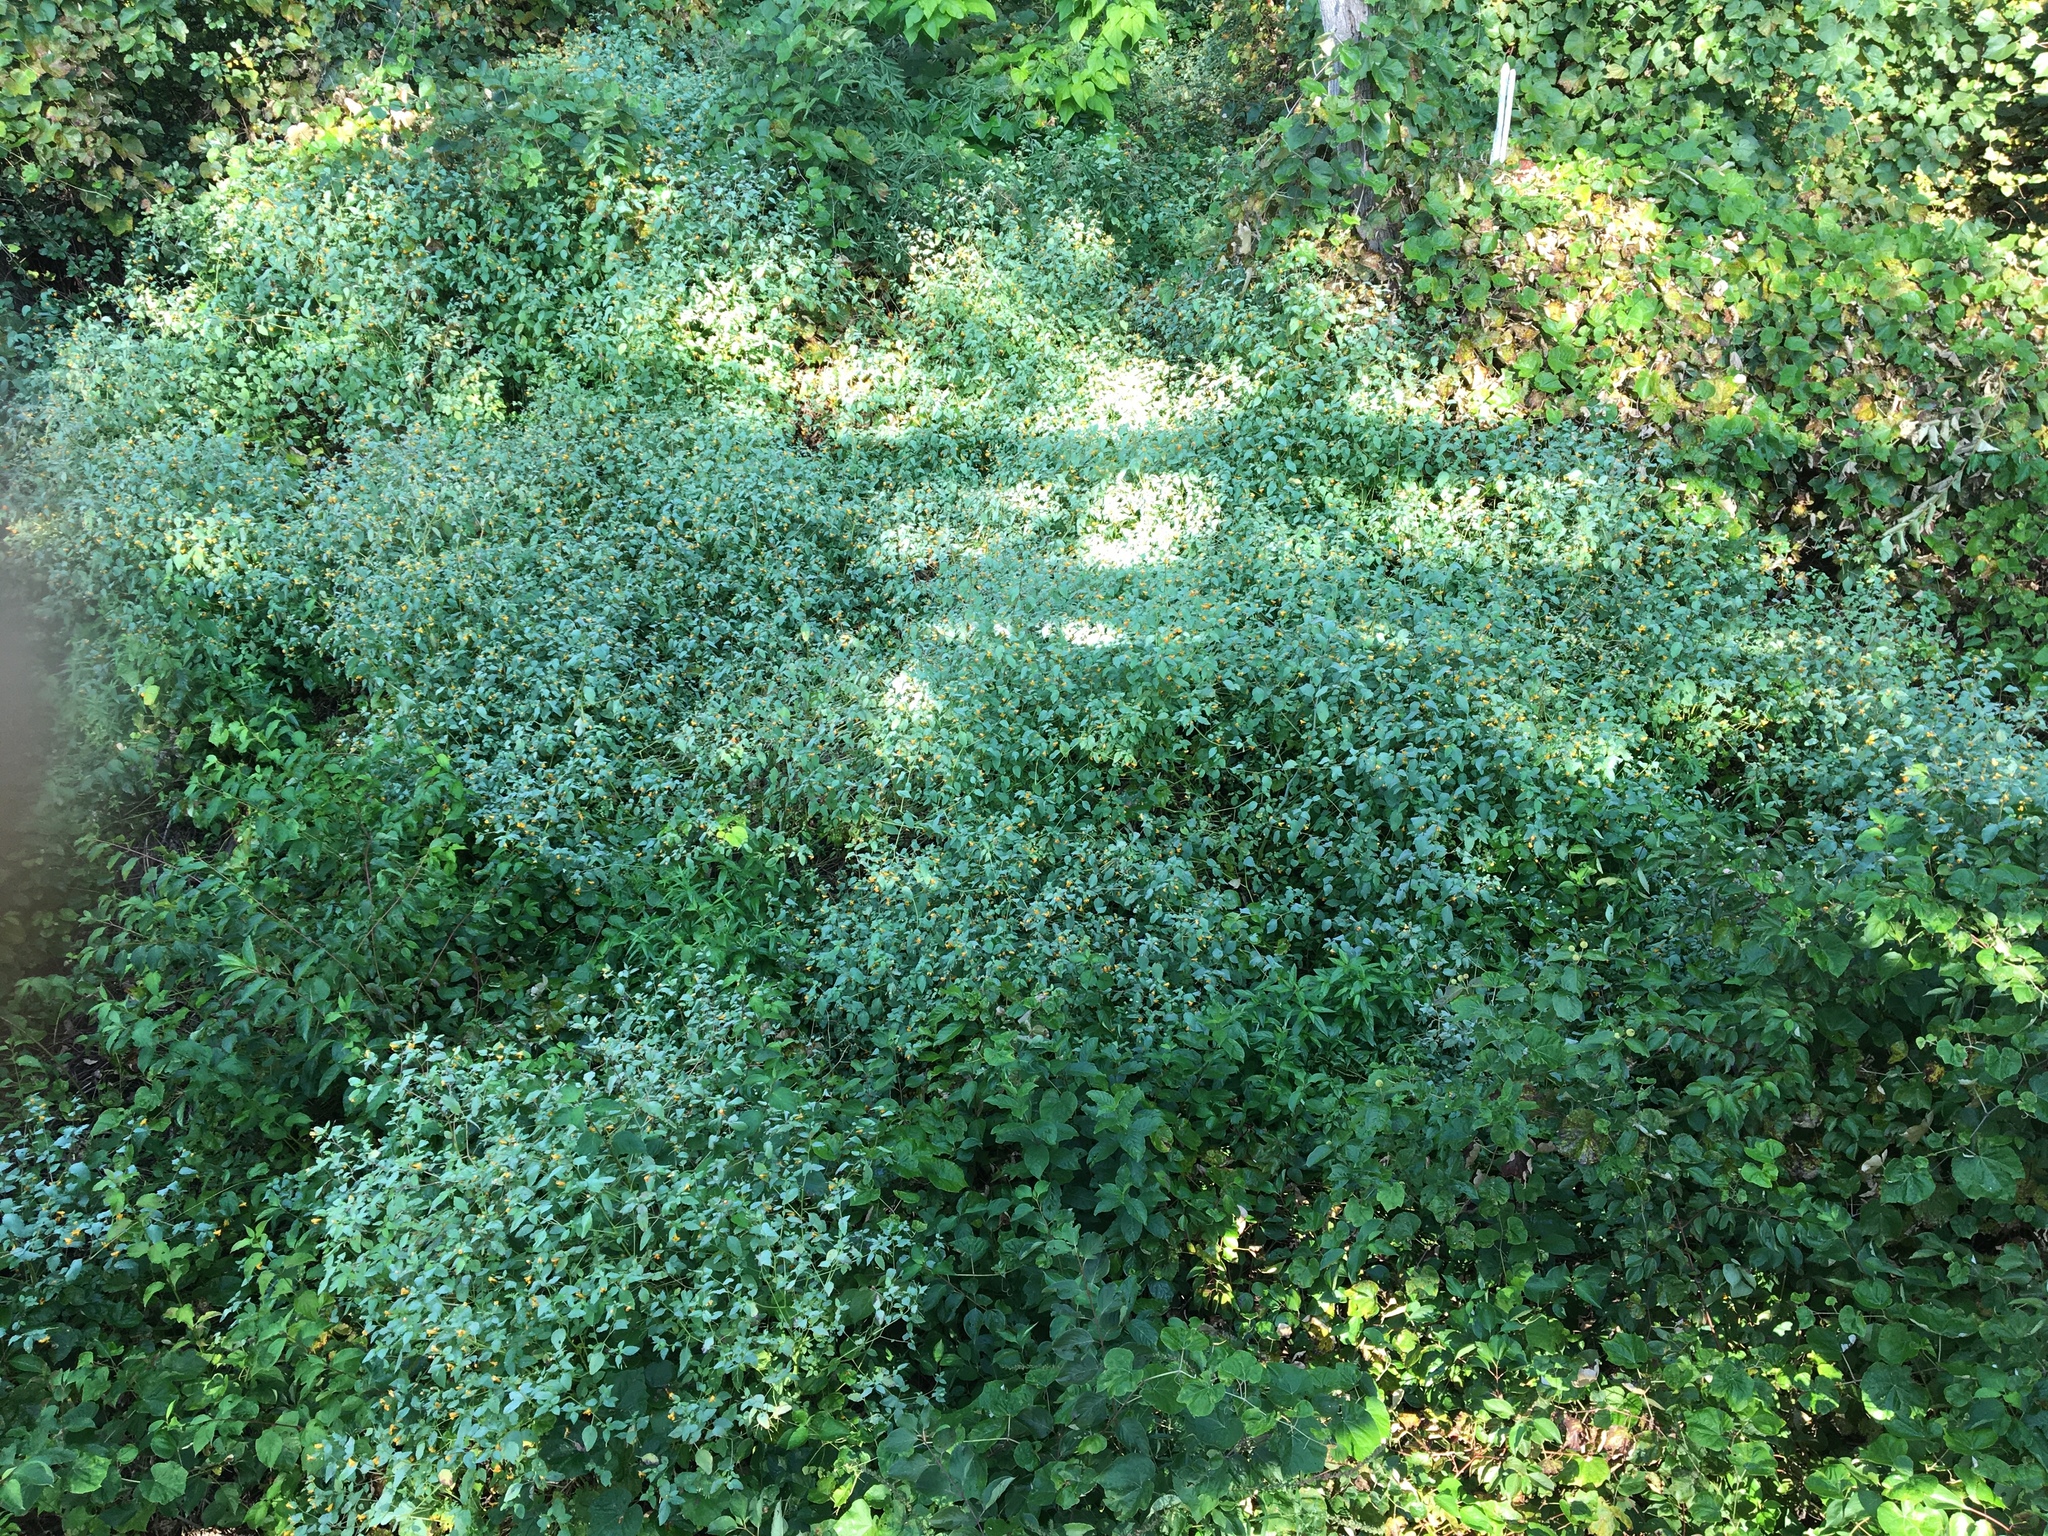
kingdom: Plantae
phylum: Tracheophyta
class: Magnoliopsida
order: Ericales
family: Balsaminaceae
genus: Impatiens
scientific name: Impatiens capensis
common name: Orange balsam
